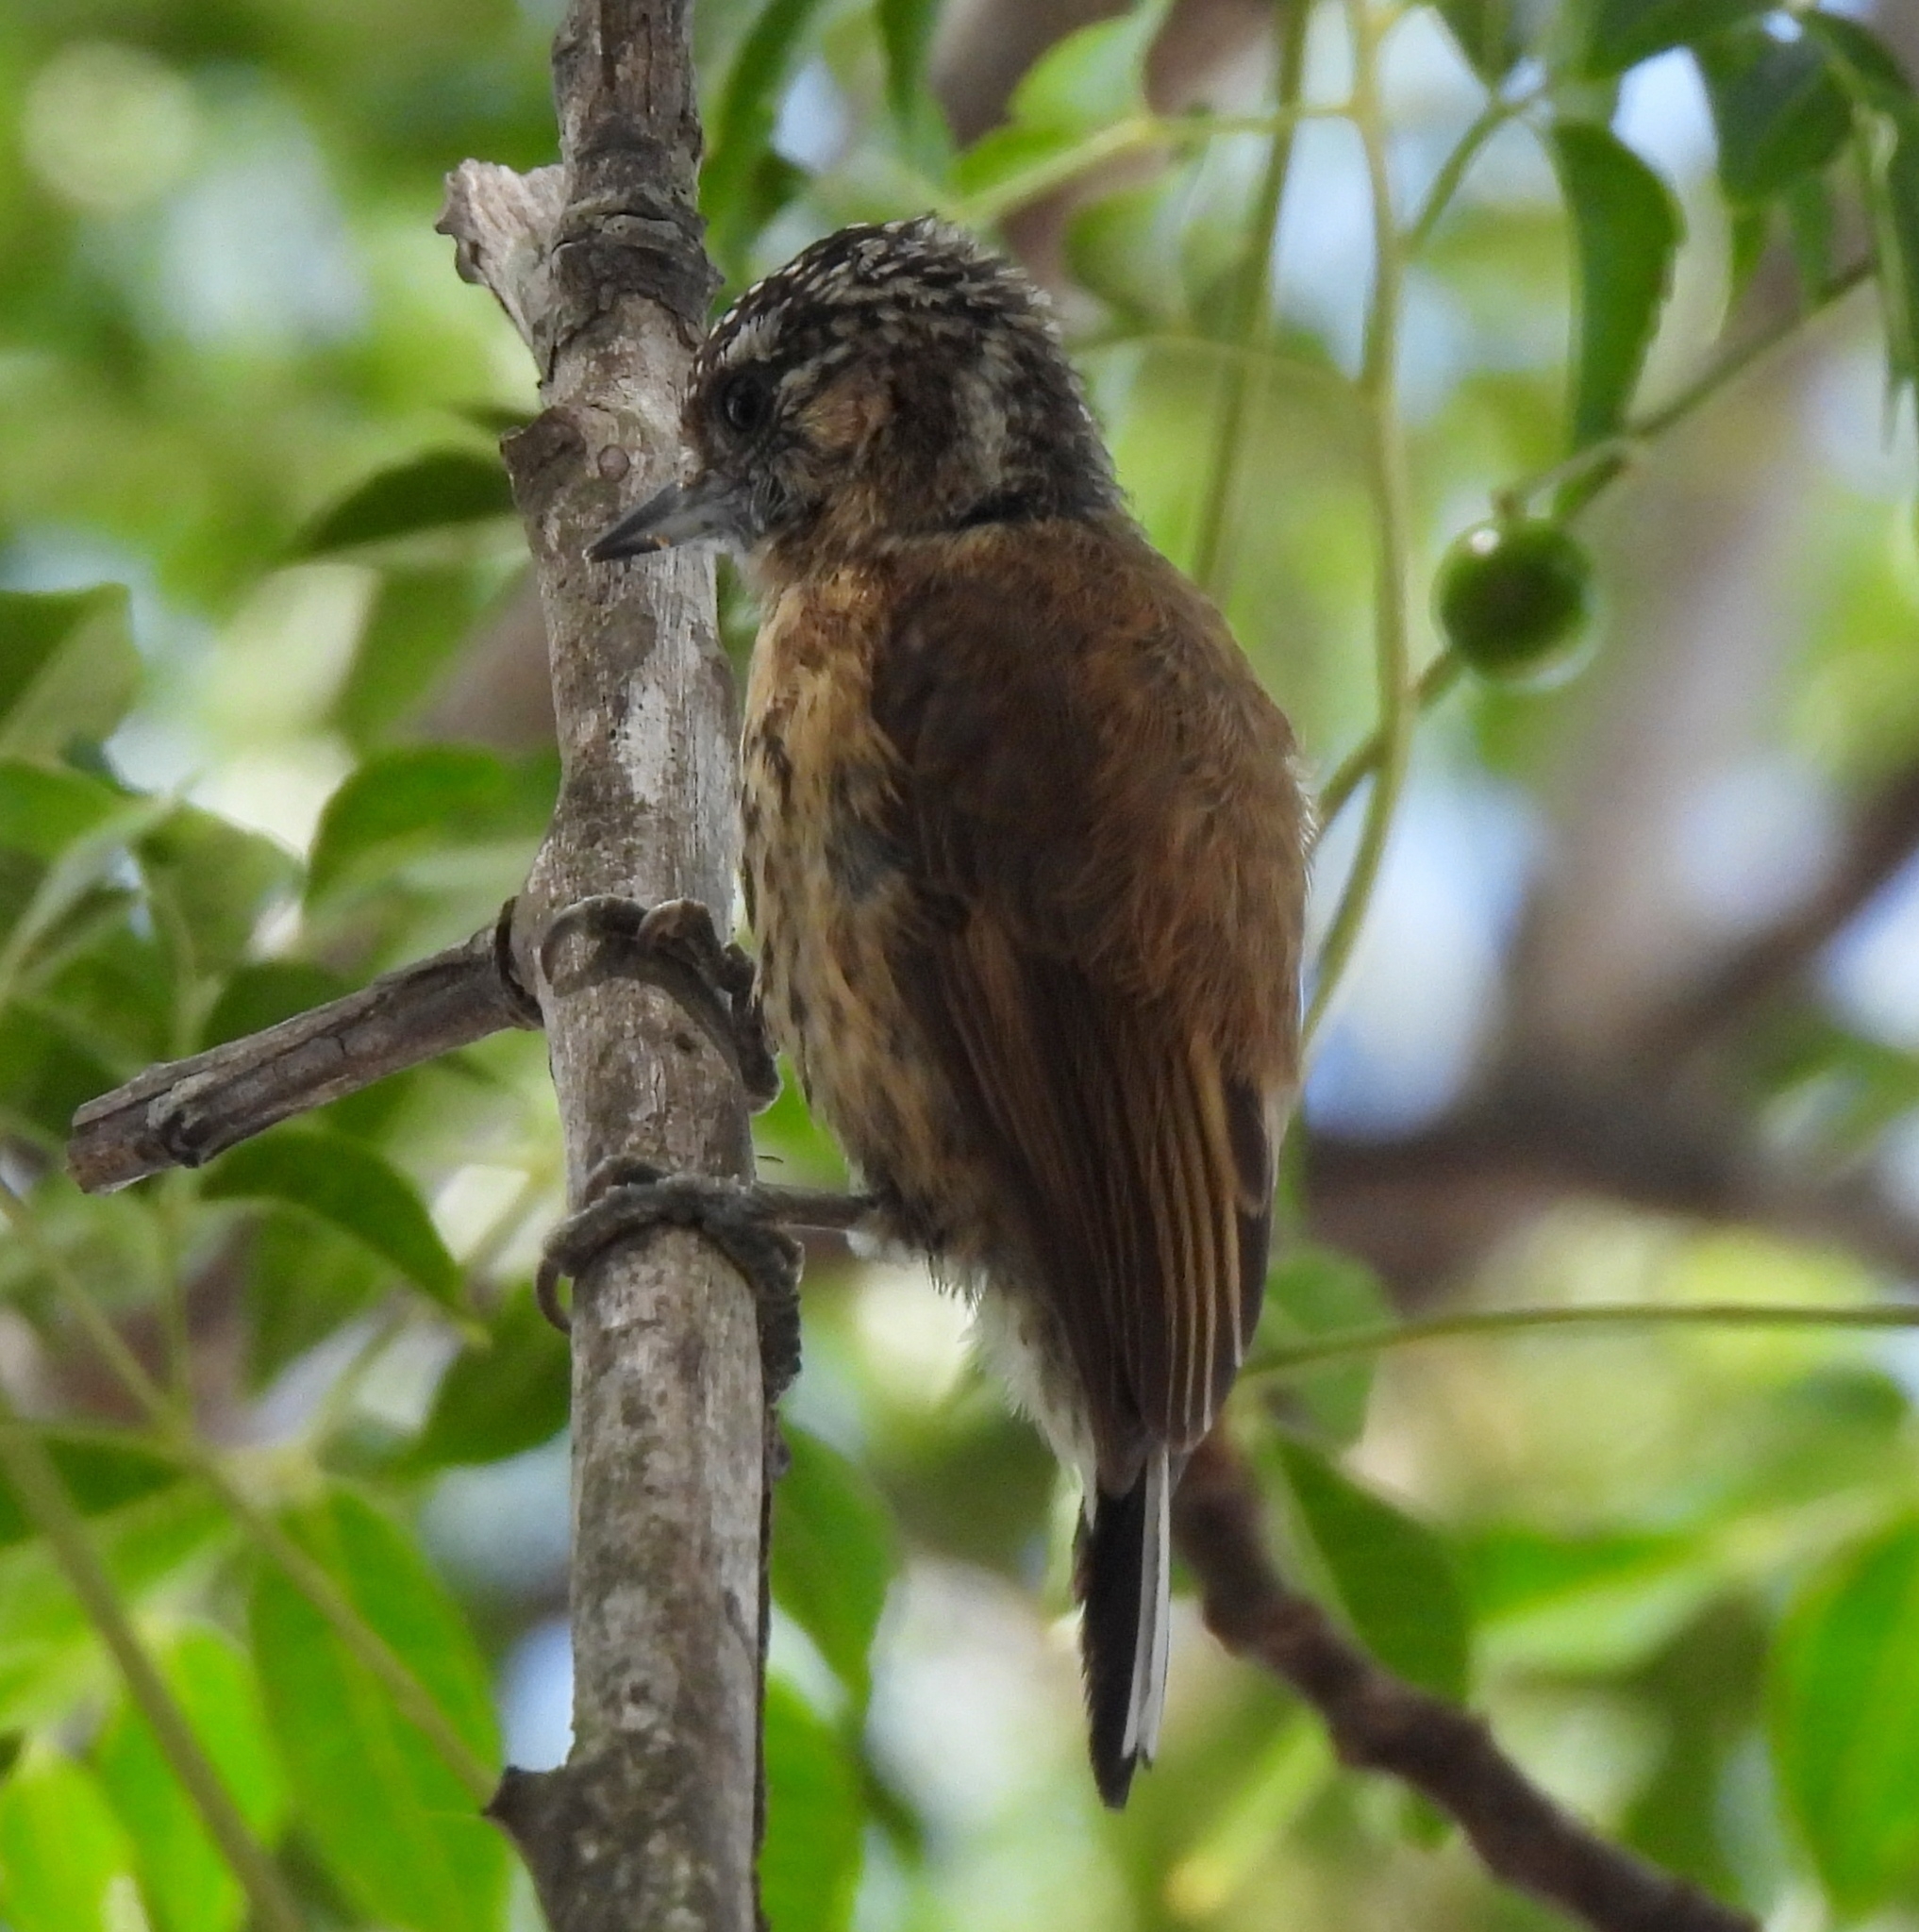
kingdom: Animalia
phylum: Chordata
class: Aves
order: Piciformes
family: Picidae
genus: Picumnus
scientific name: Picumnus nebulosus
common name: Mottled piculet
